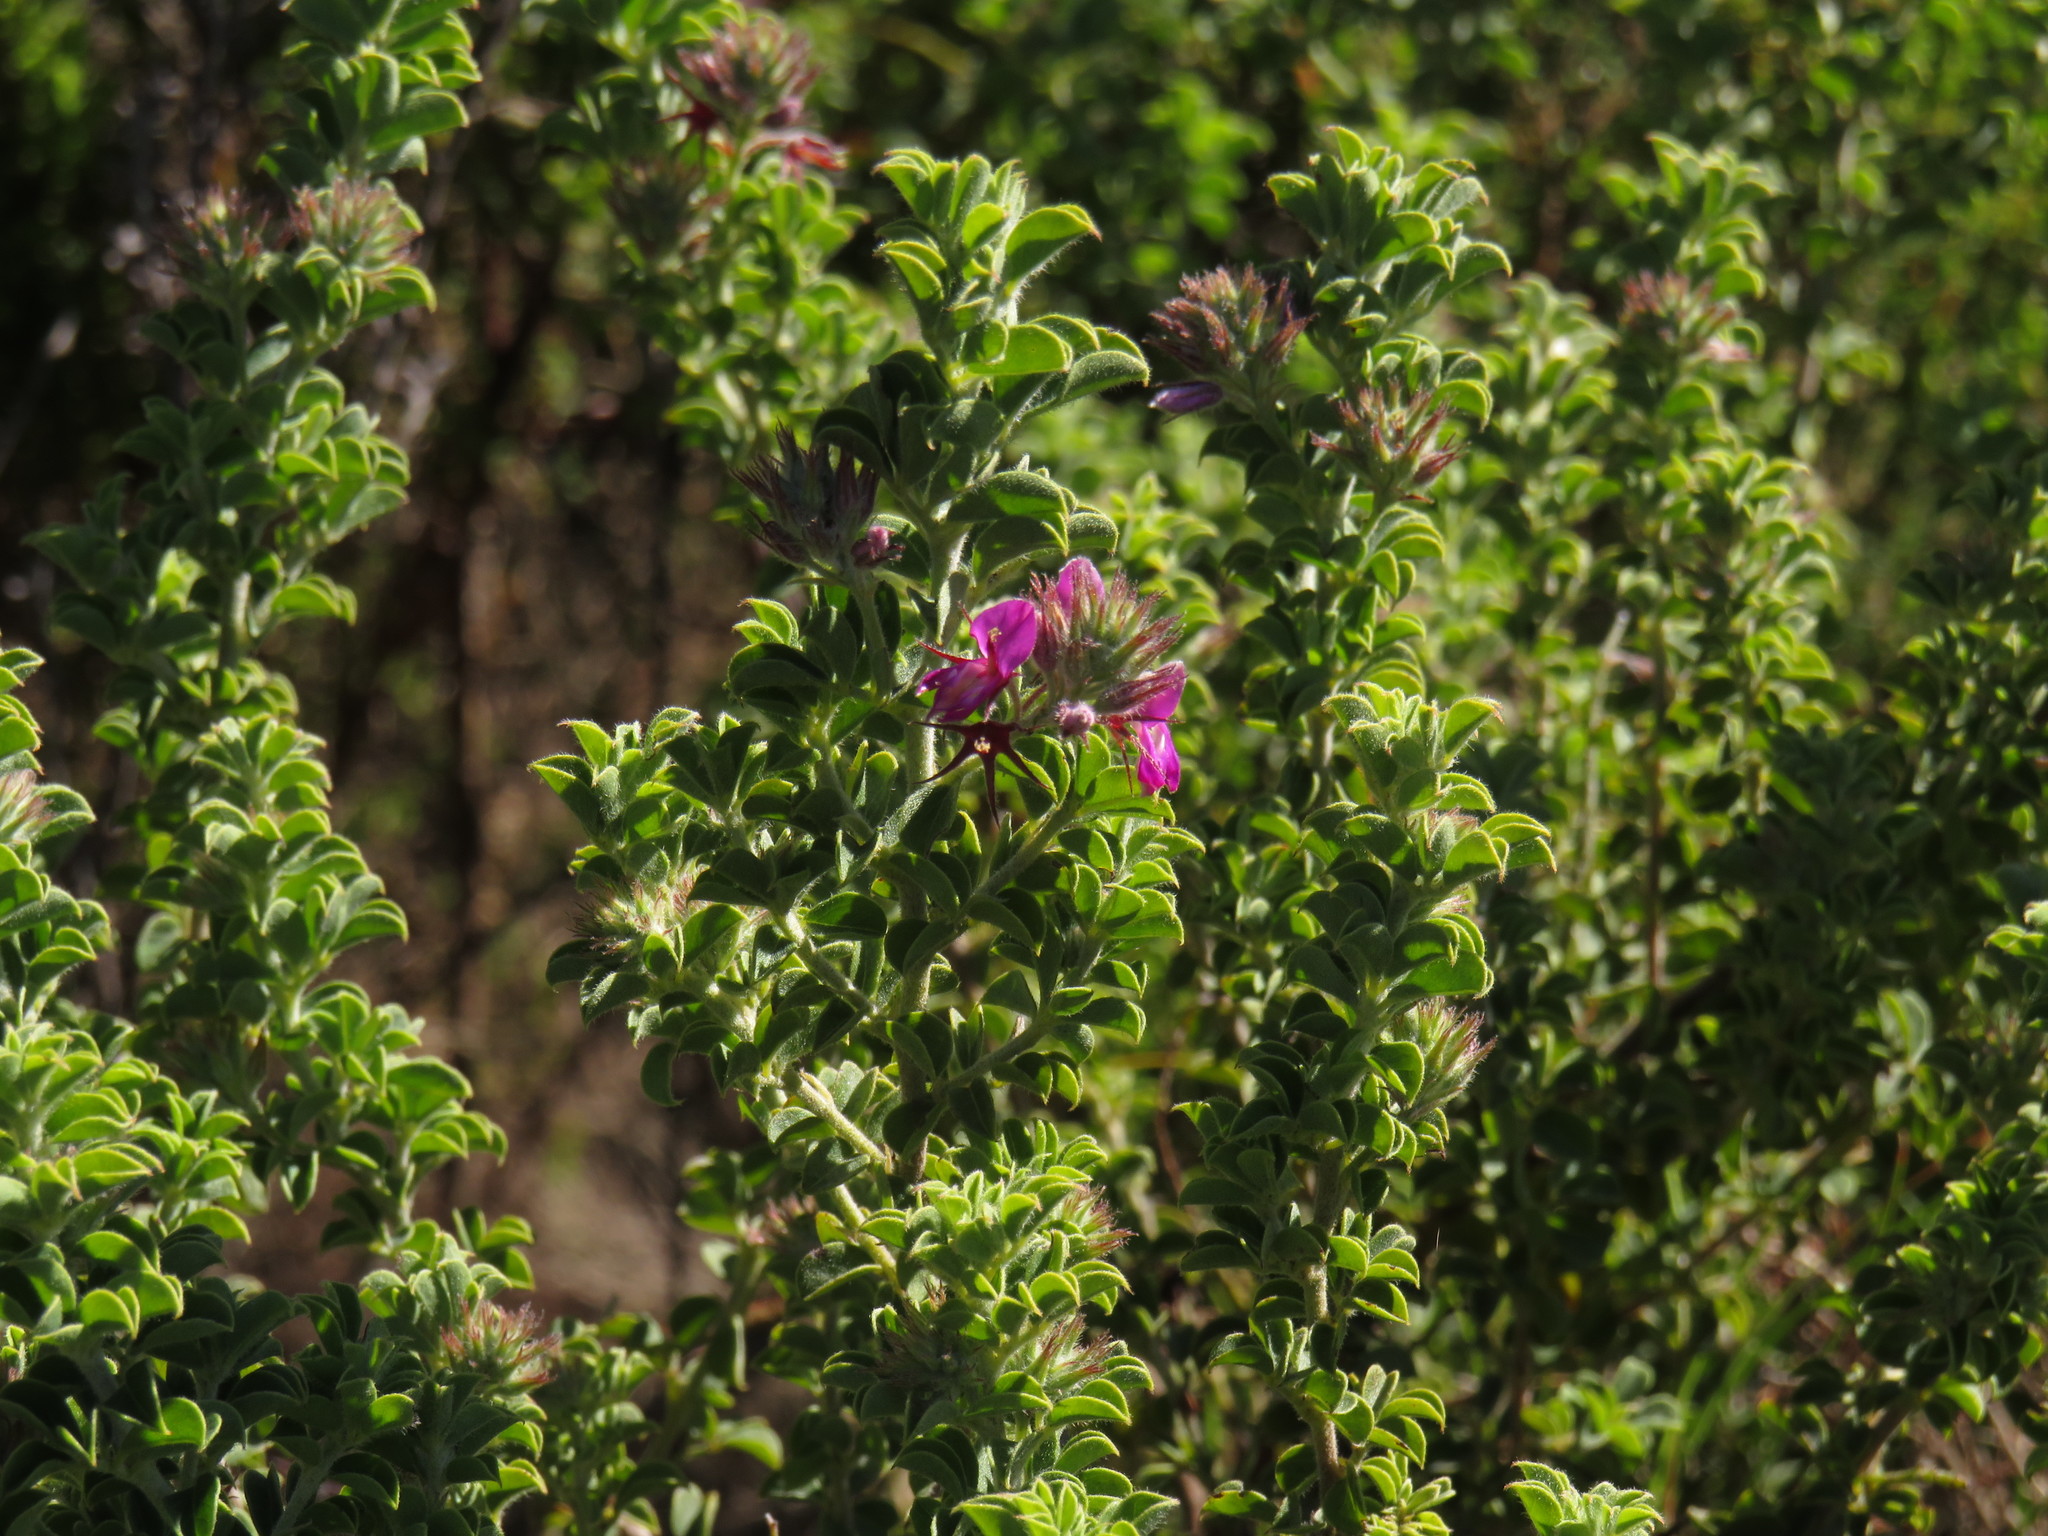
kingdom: Plantae
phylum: Tracheophyta
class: Magnoliopsida
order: Fabales
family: Fabaceae
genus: Indigofera
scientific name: Indigofera candolleana
